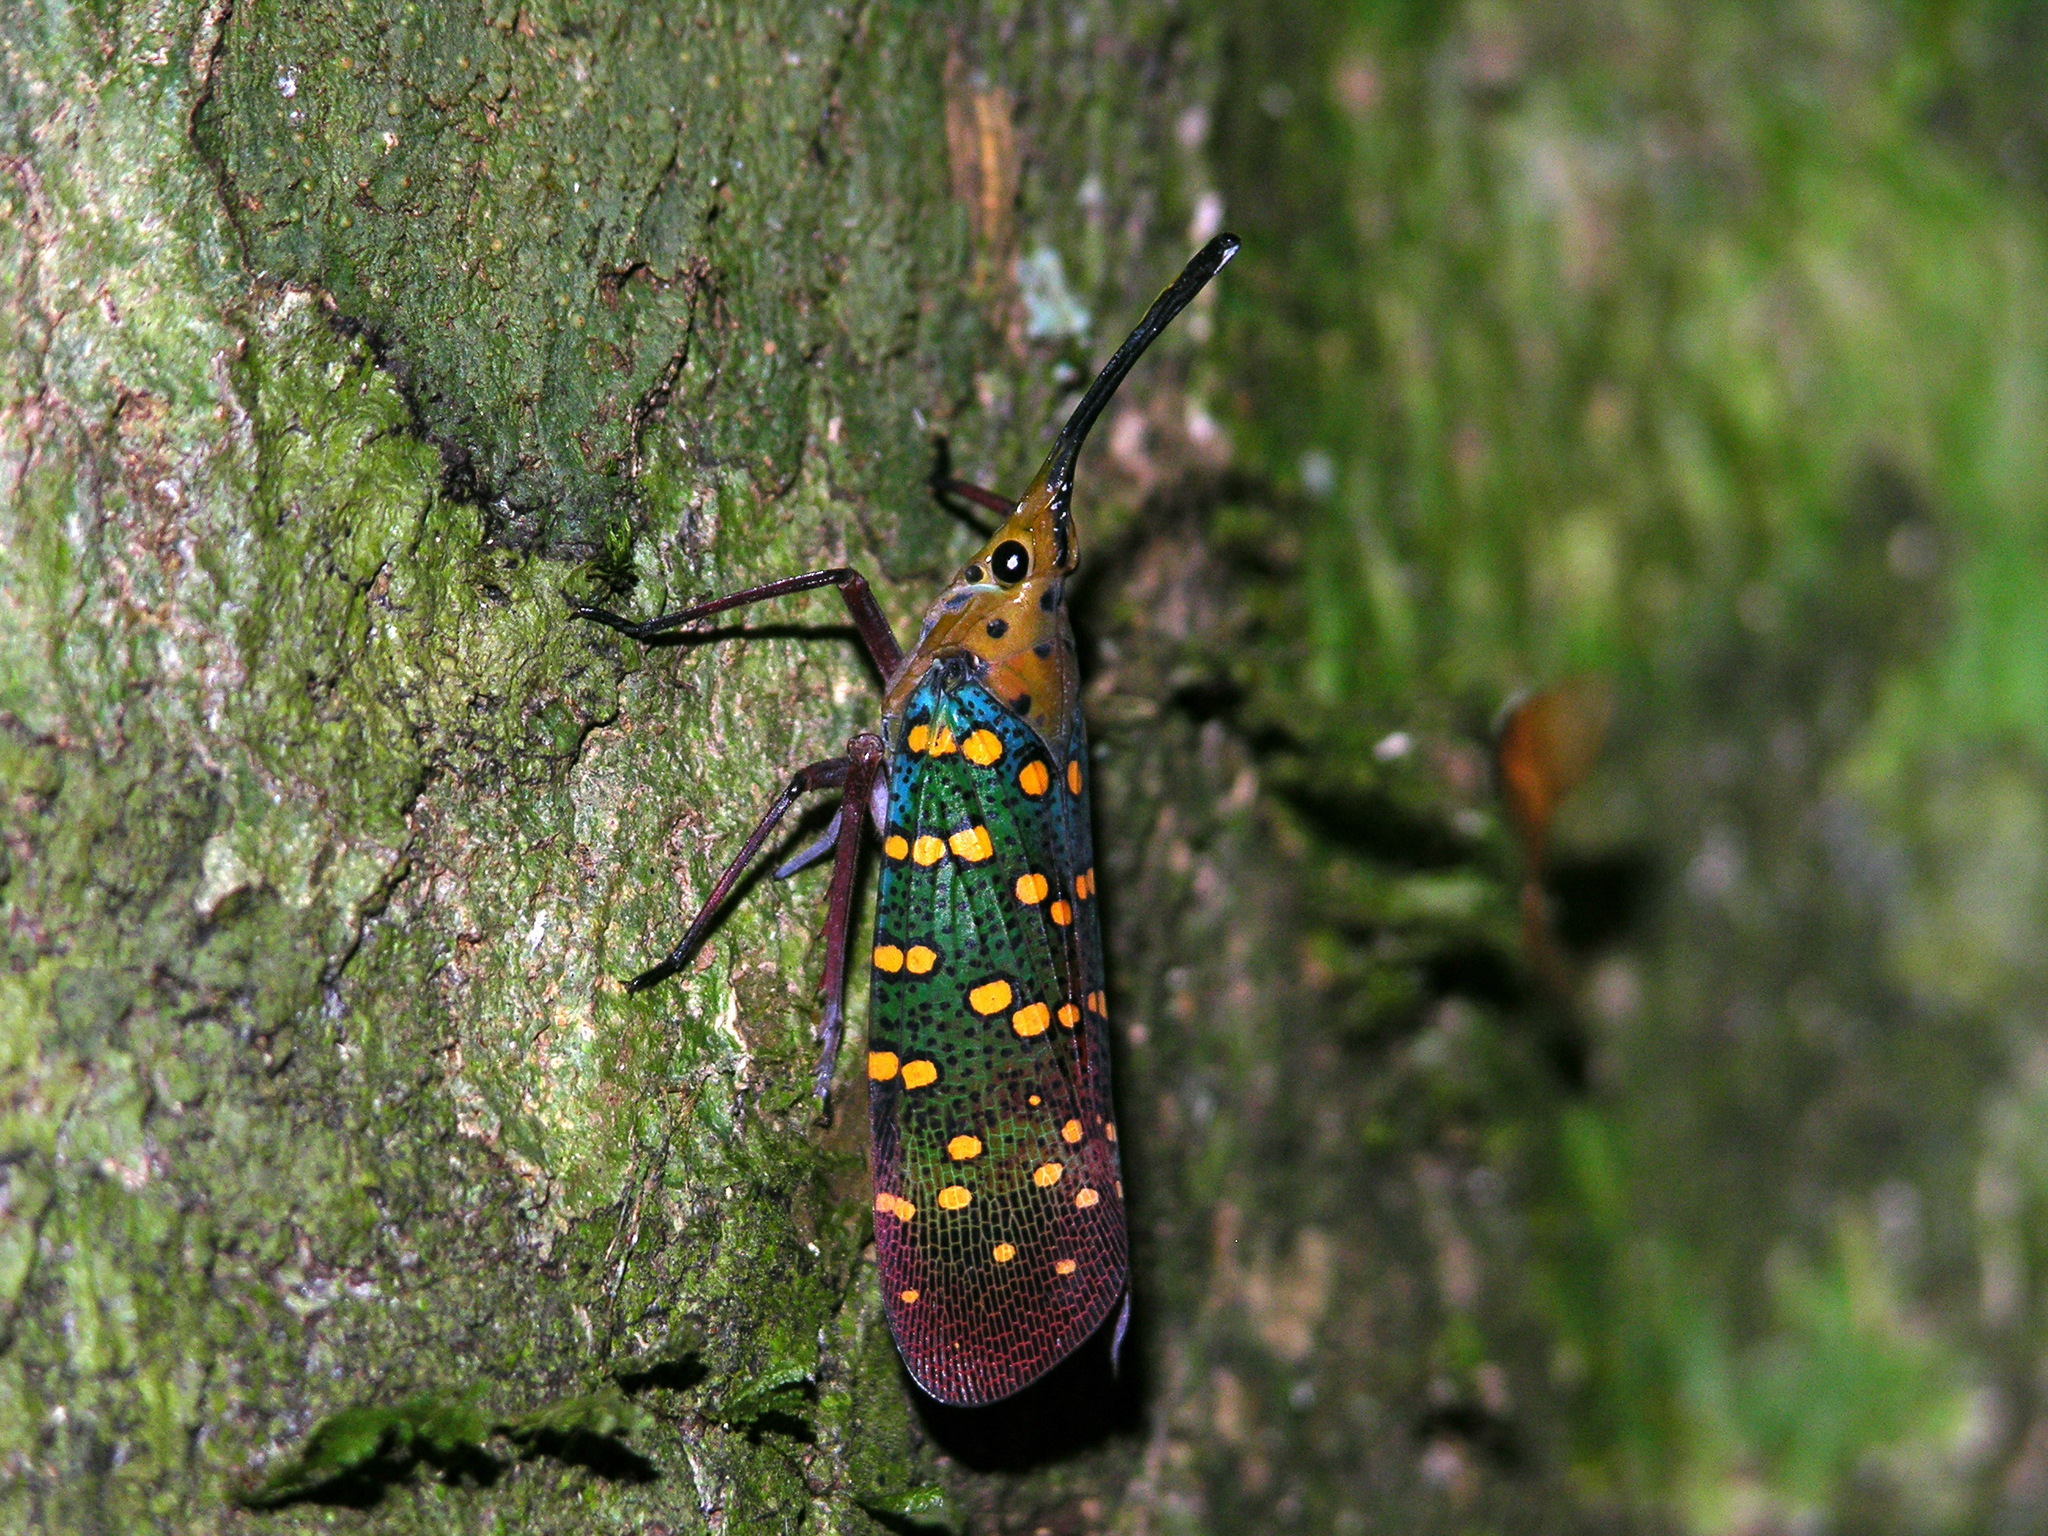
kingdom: Animalia
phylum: Arthropoda
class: Insecta
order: Hemiptera
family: Fulgoridae
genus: Saiva
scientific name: Saiva gemmata
